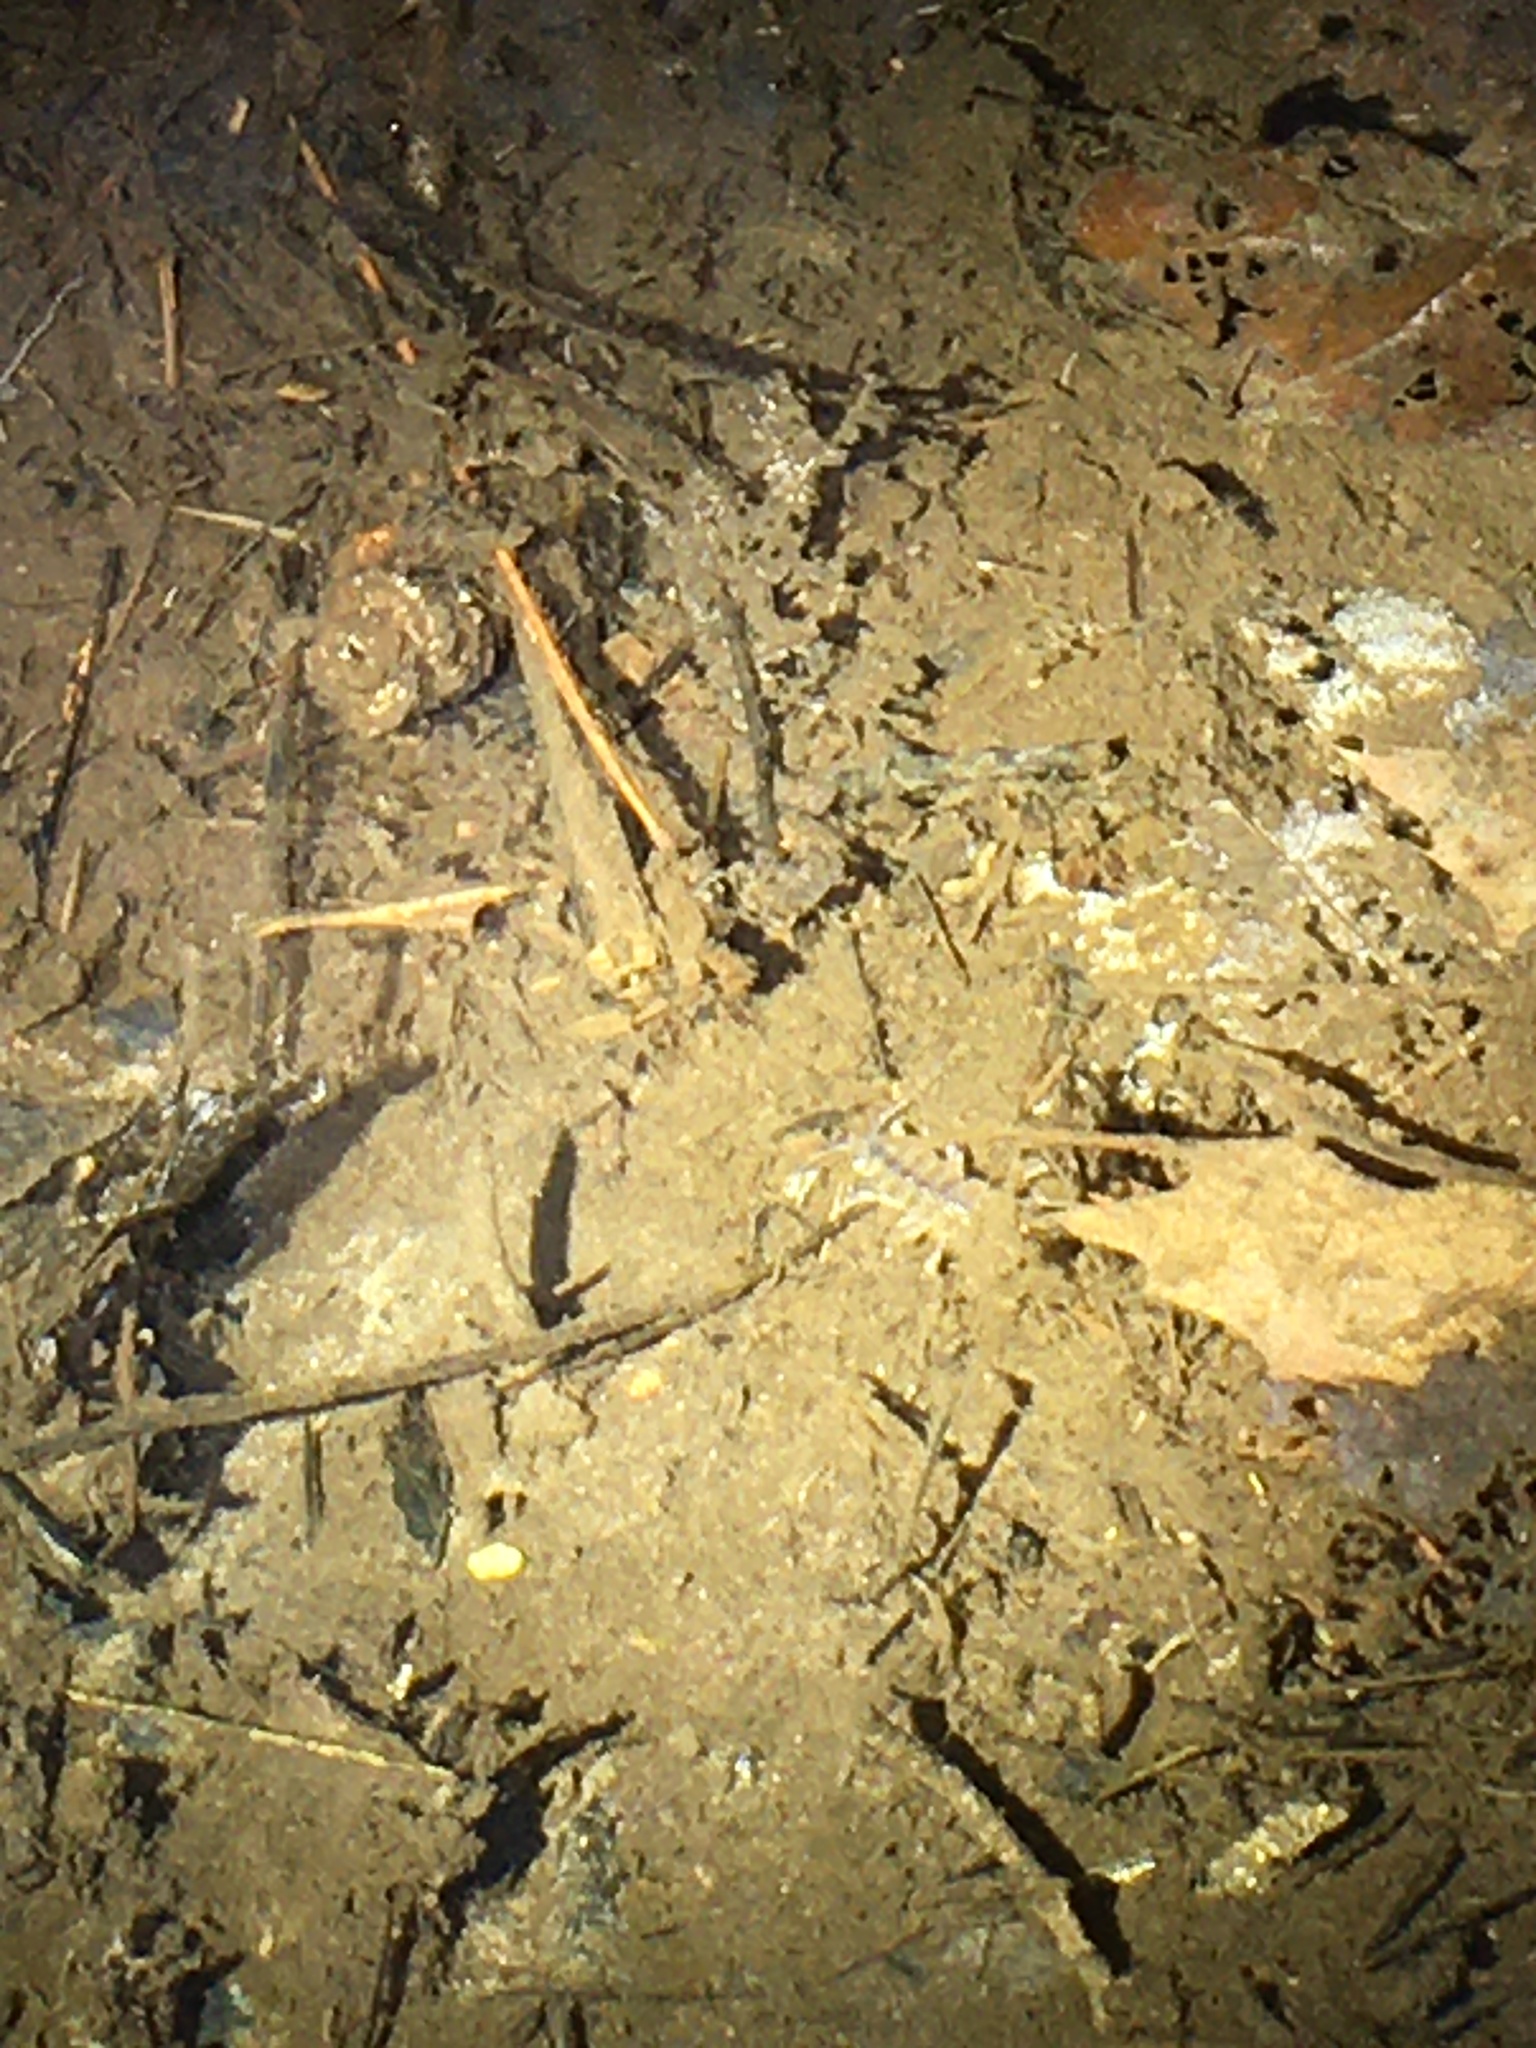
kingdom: Animalia
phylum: Arthropoda
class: Malacostraca
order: Isopoda
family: Asellidae
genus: Caecidotea
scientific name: Caecidotea
